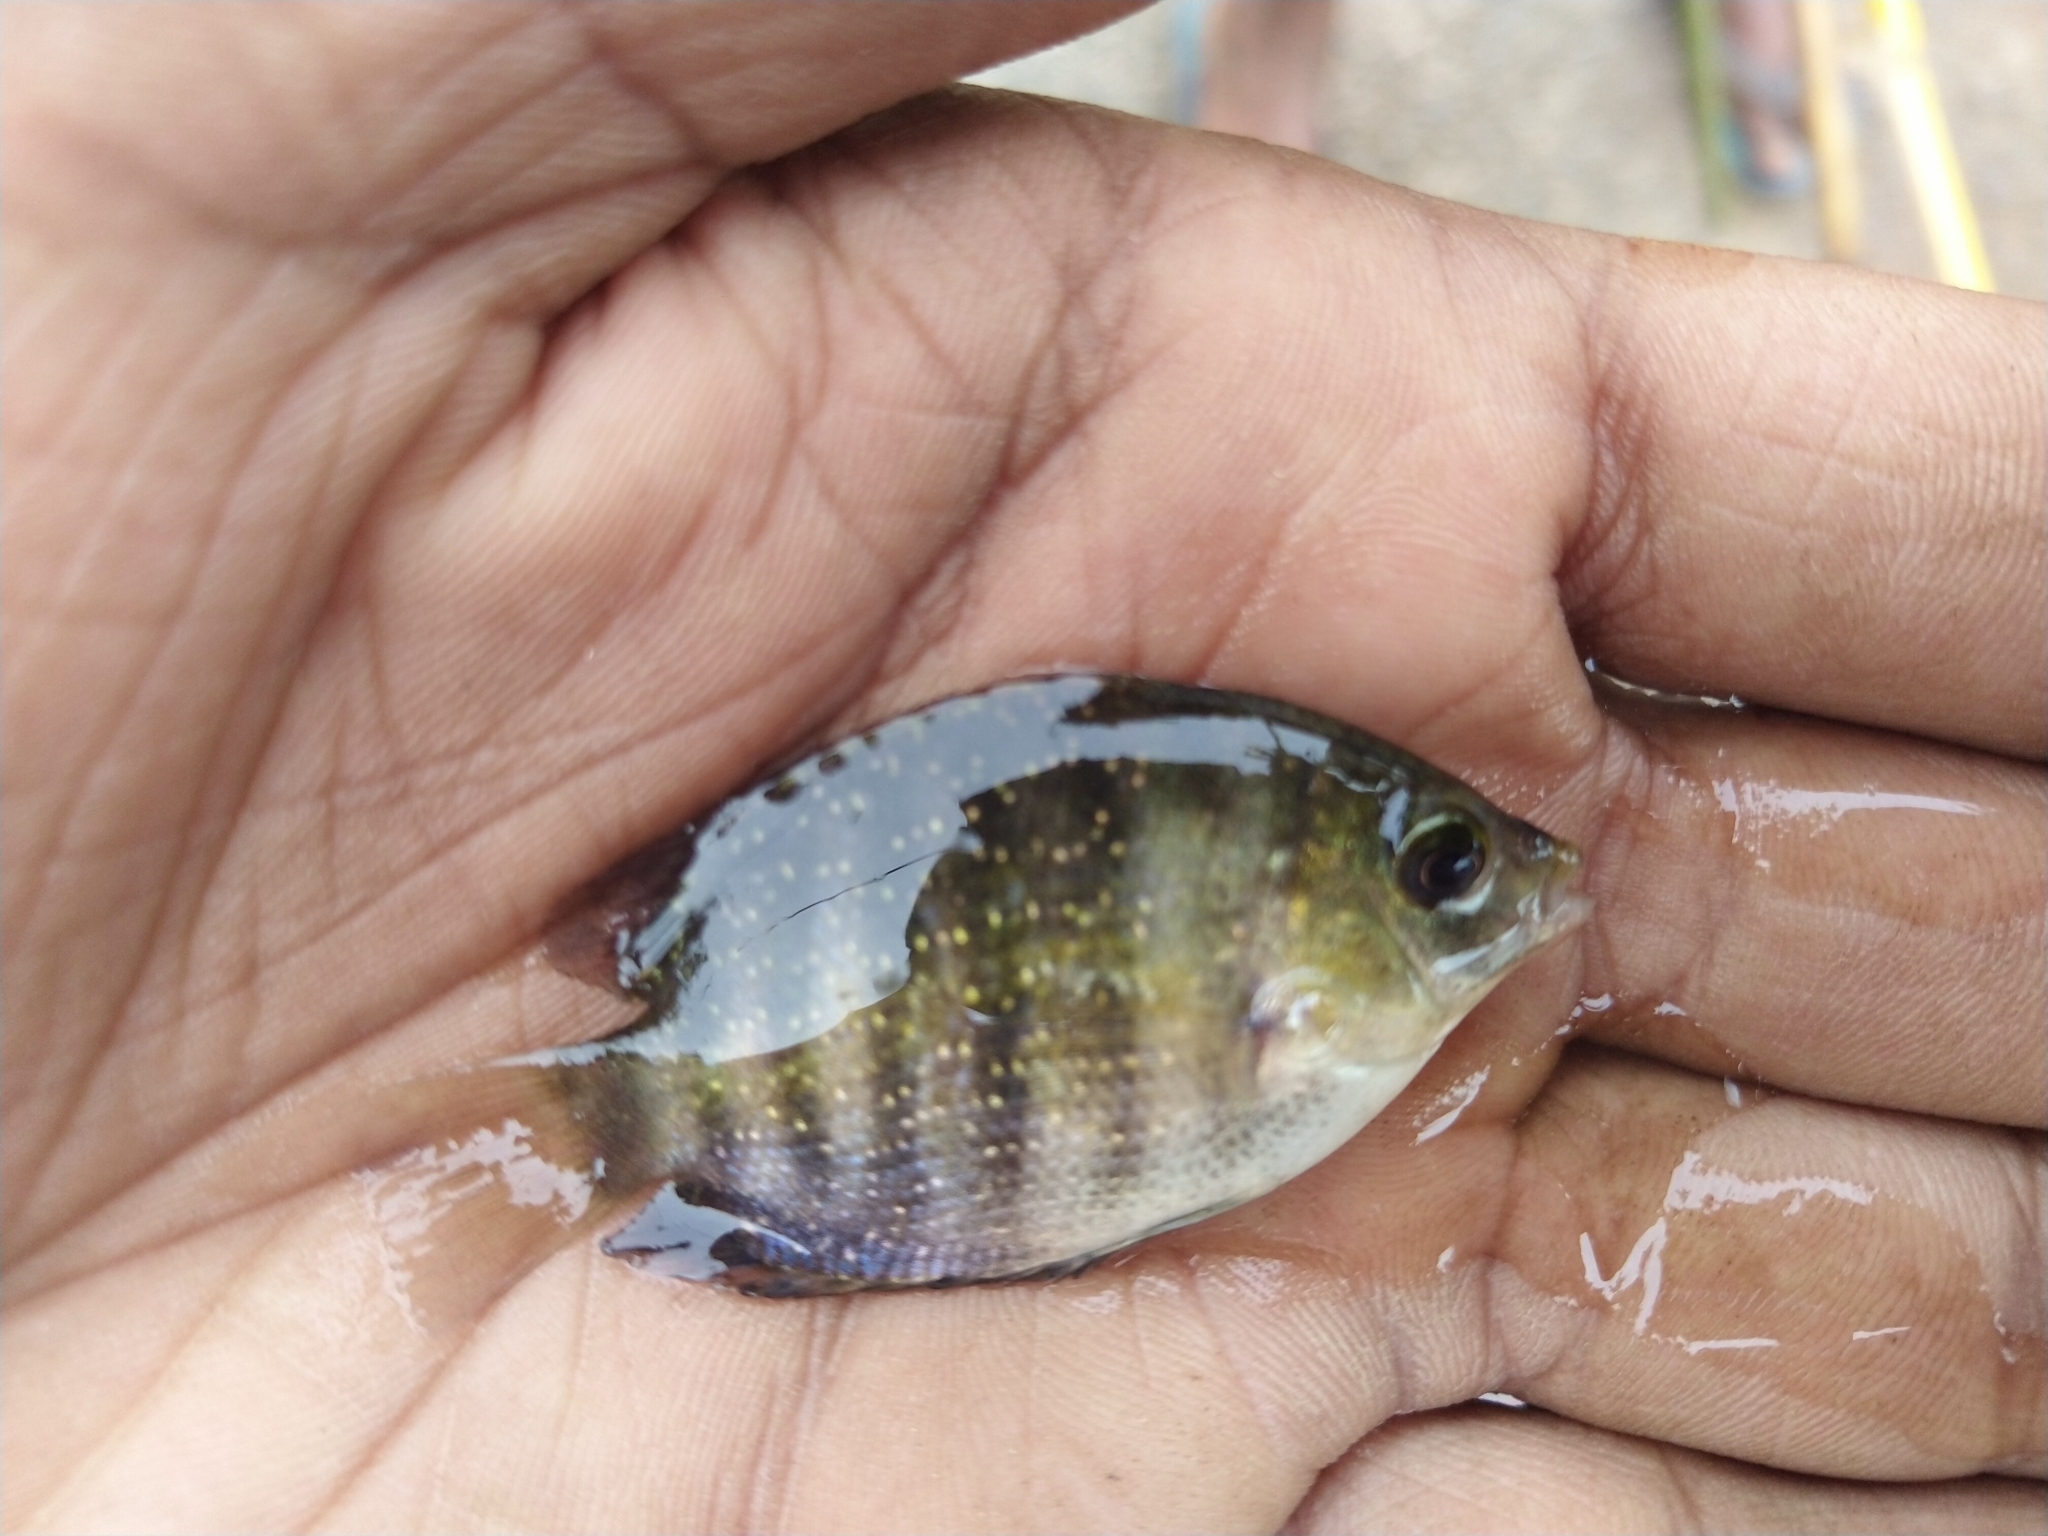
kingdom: Animalia
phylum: Chordata
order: Perciformes
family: Cichlidae
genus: Etroplus
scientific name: Etroplus suratensis
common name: Green chromide
